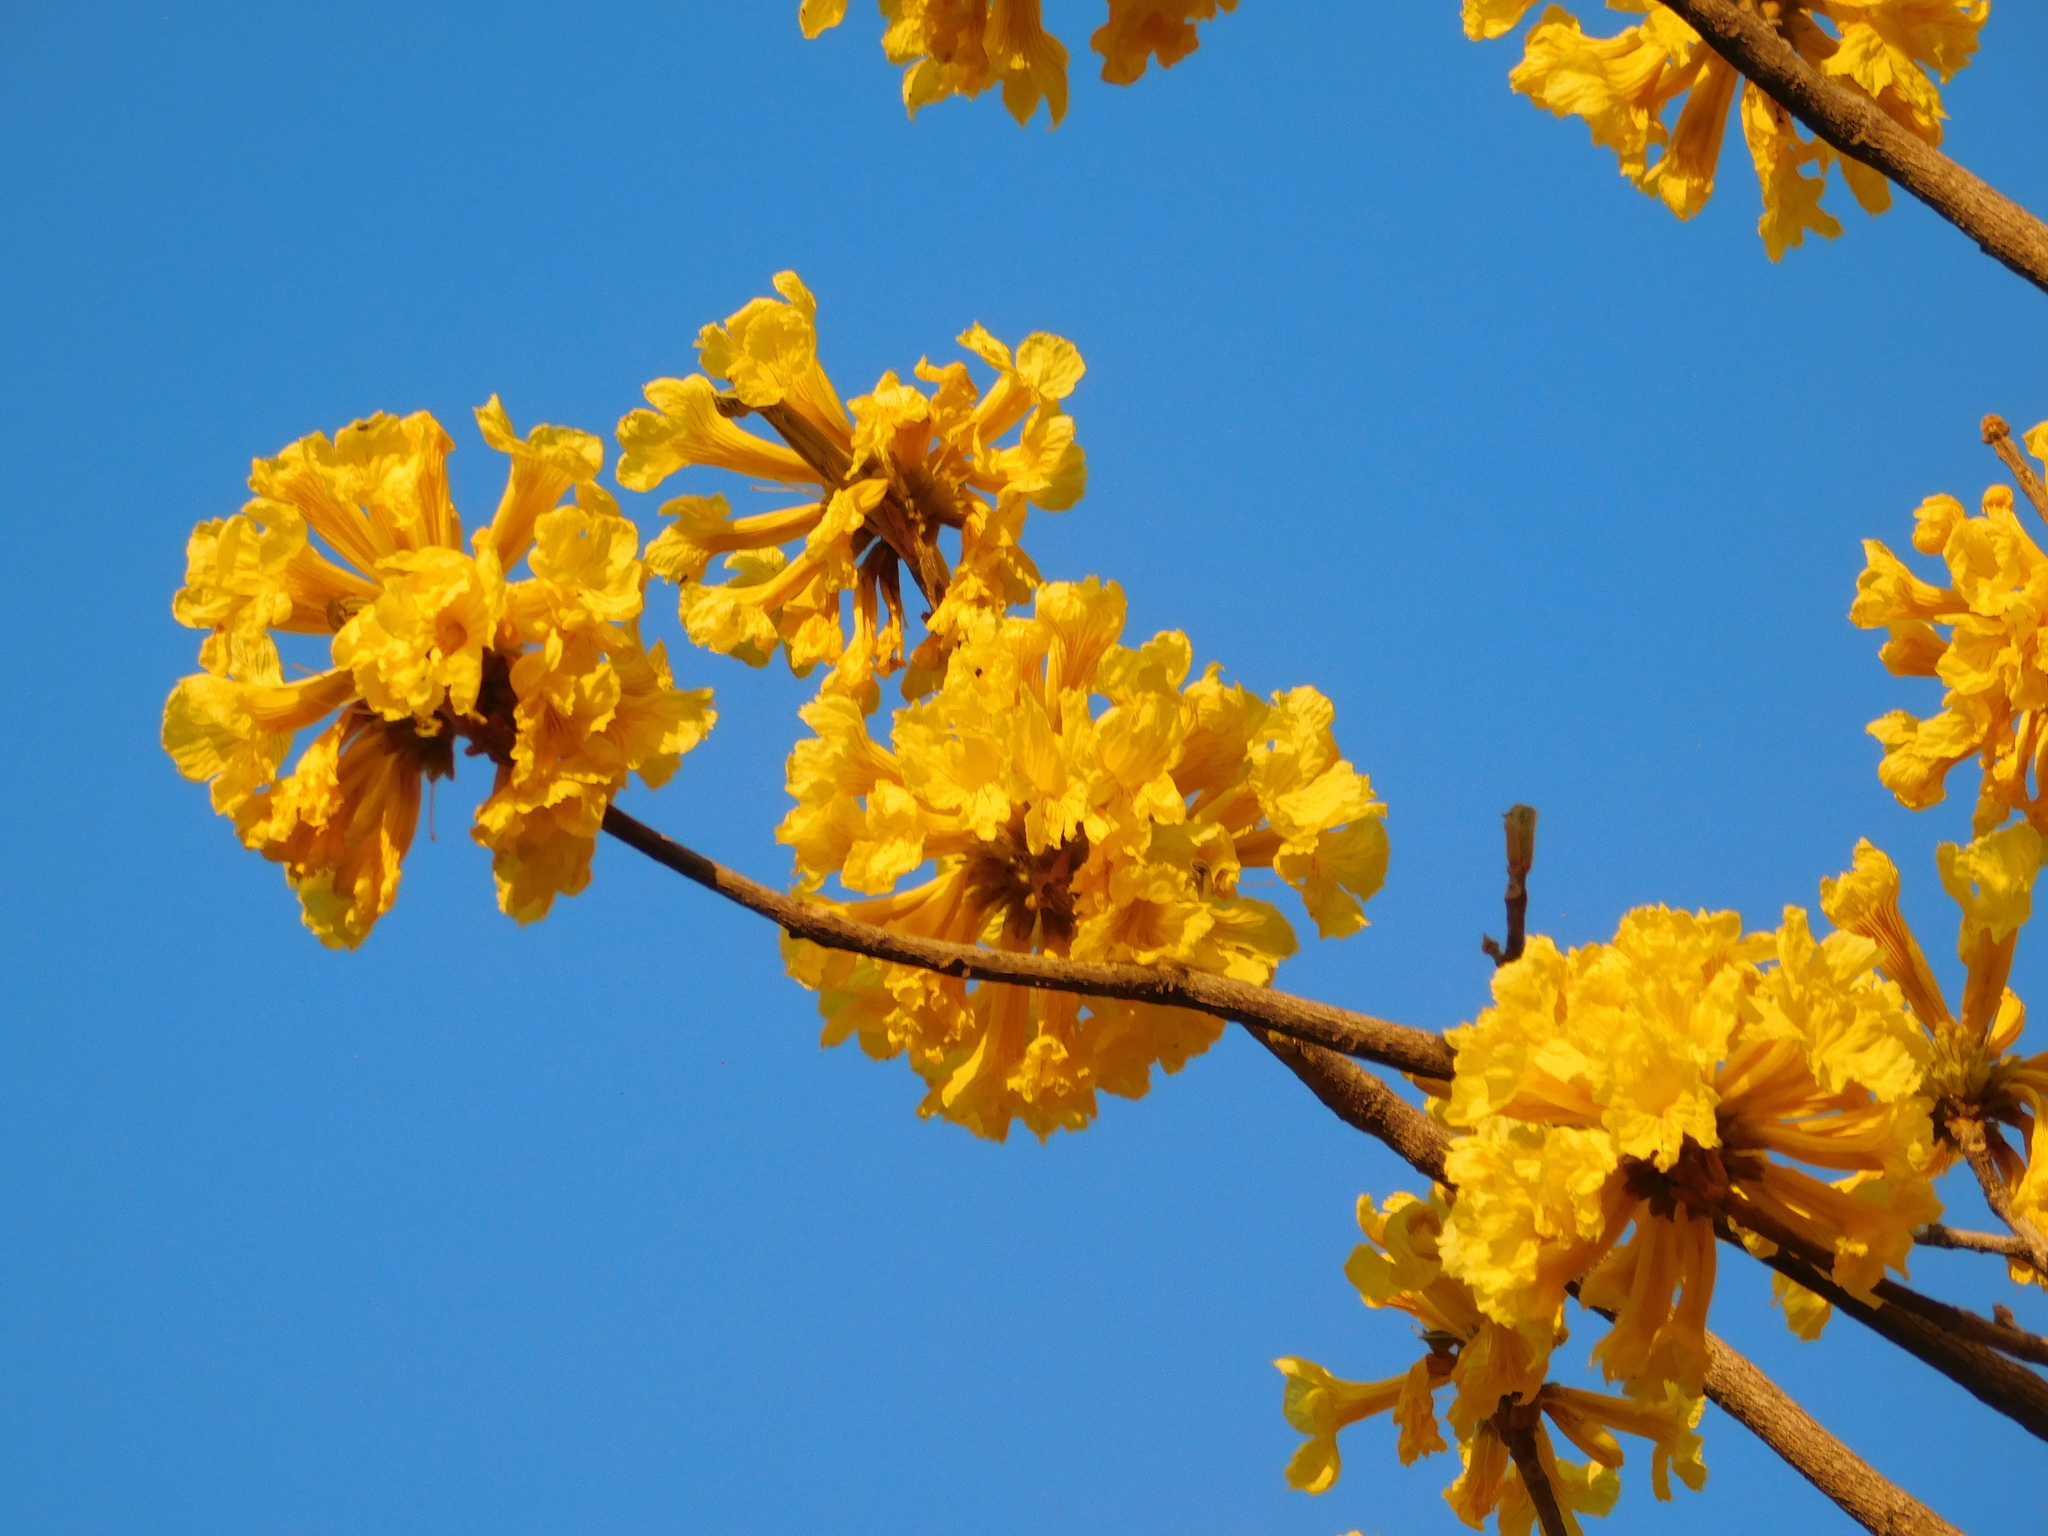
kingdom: Plantae
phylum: Tracheophyta
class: Magnoliopsida
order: Lamiales
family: Bignoniaceae
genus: Handroanthus
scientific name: Handroanthus ochraceus
